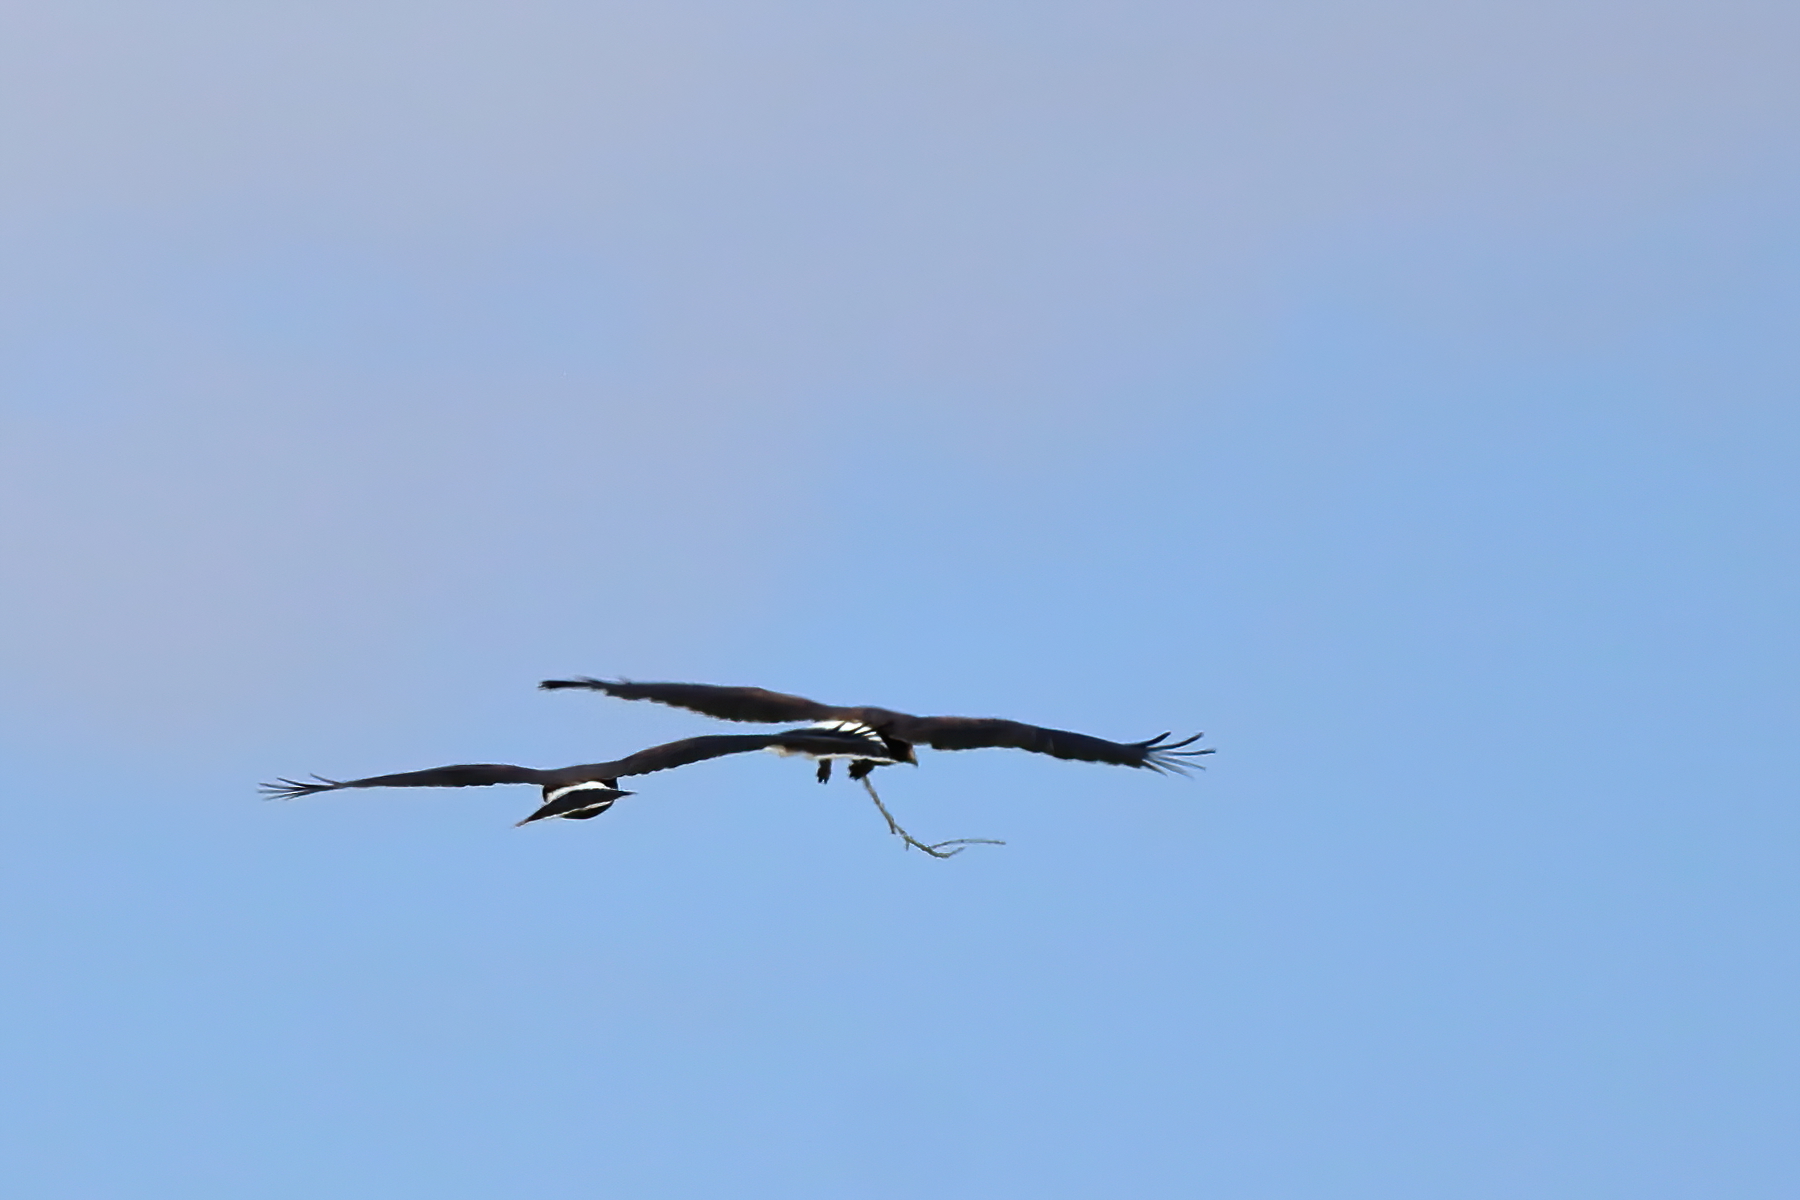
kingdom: Animalia
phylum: Chordata
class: Aves
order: Accipitriformes
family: Accipitridae
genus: Parabuteo
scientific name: Parabuteo unicinctus
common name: Harris's hawk
